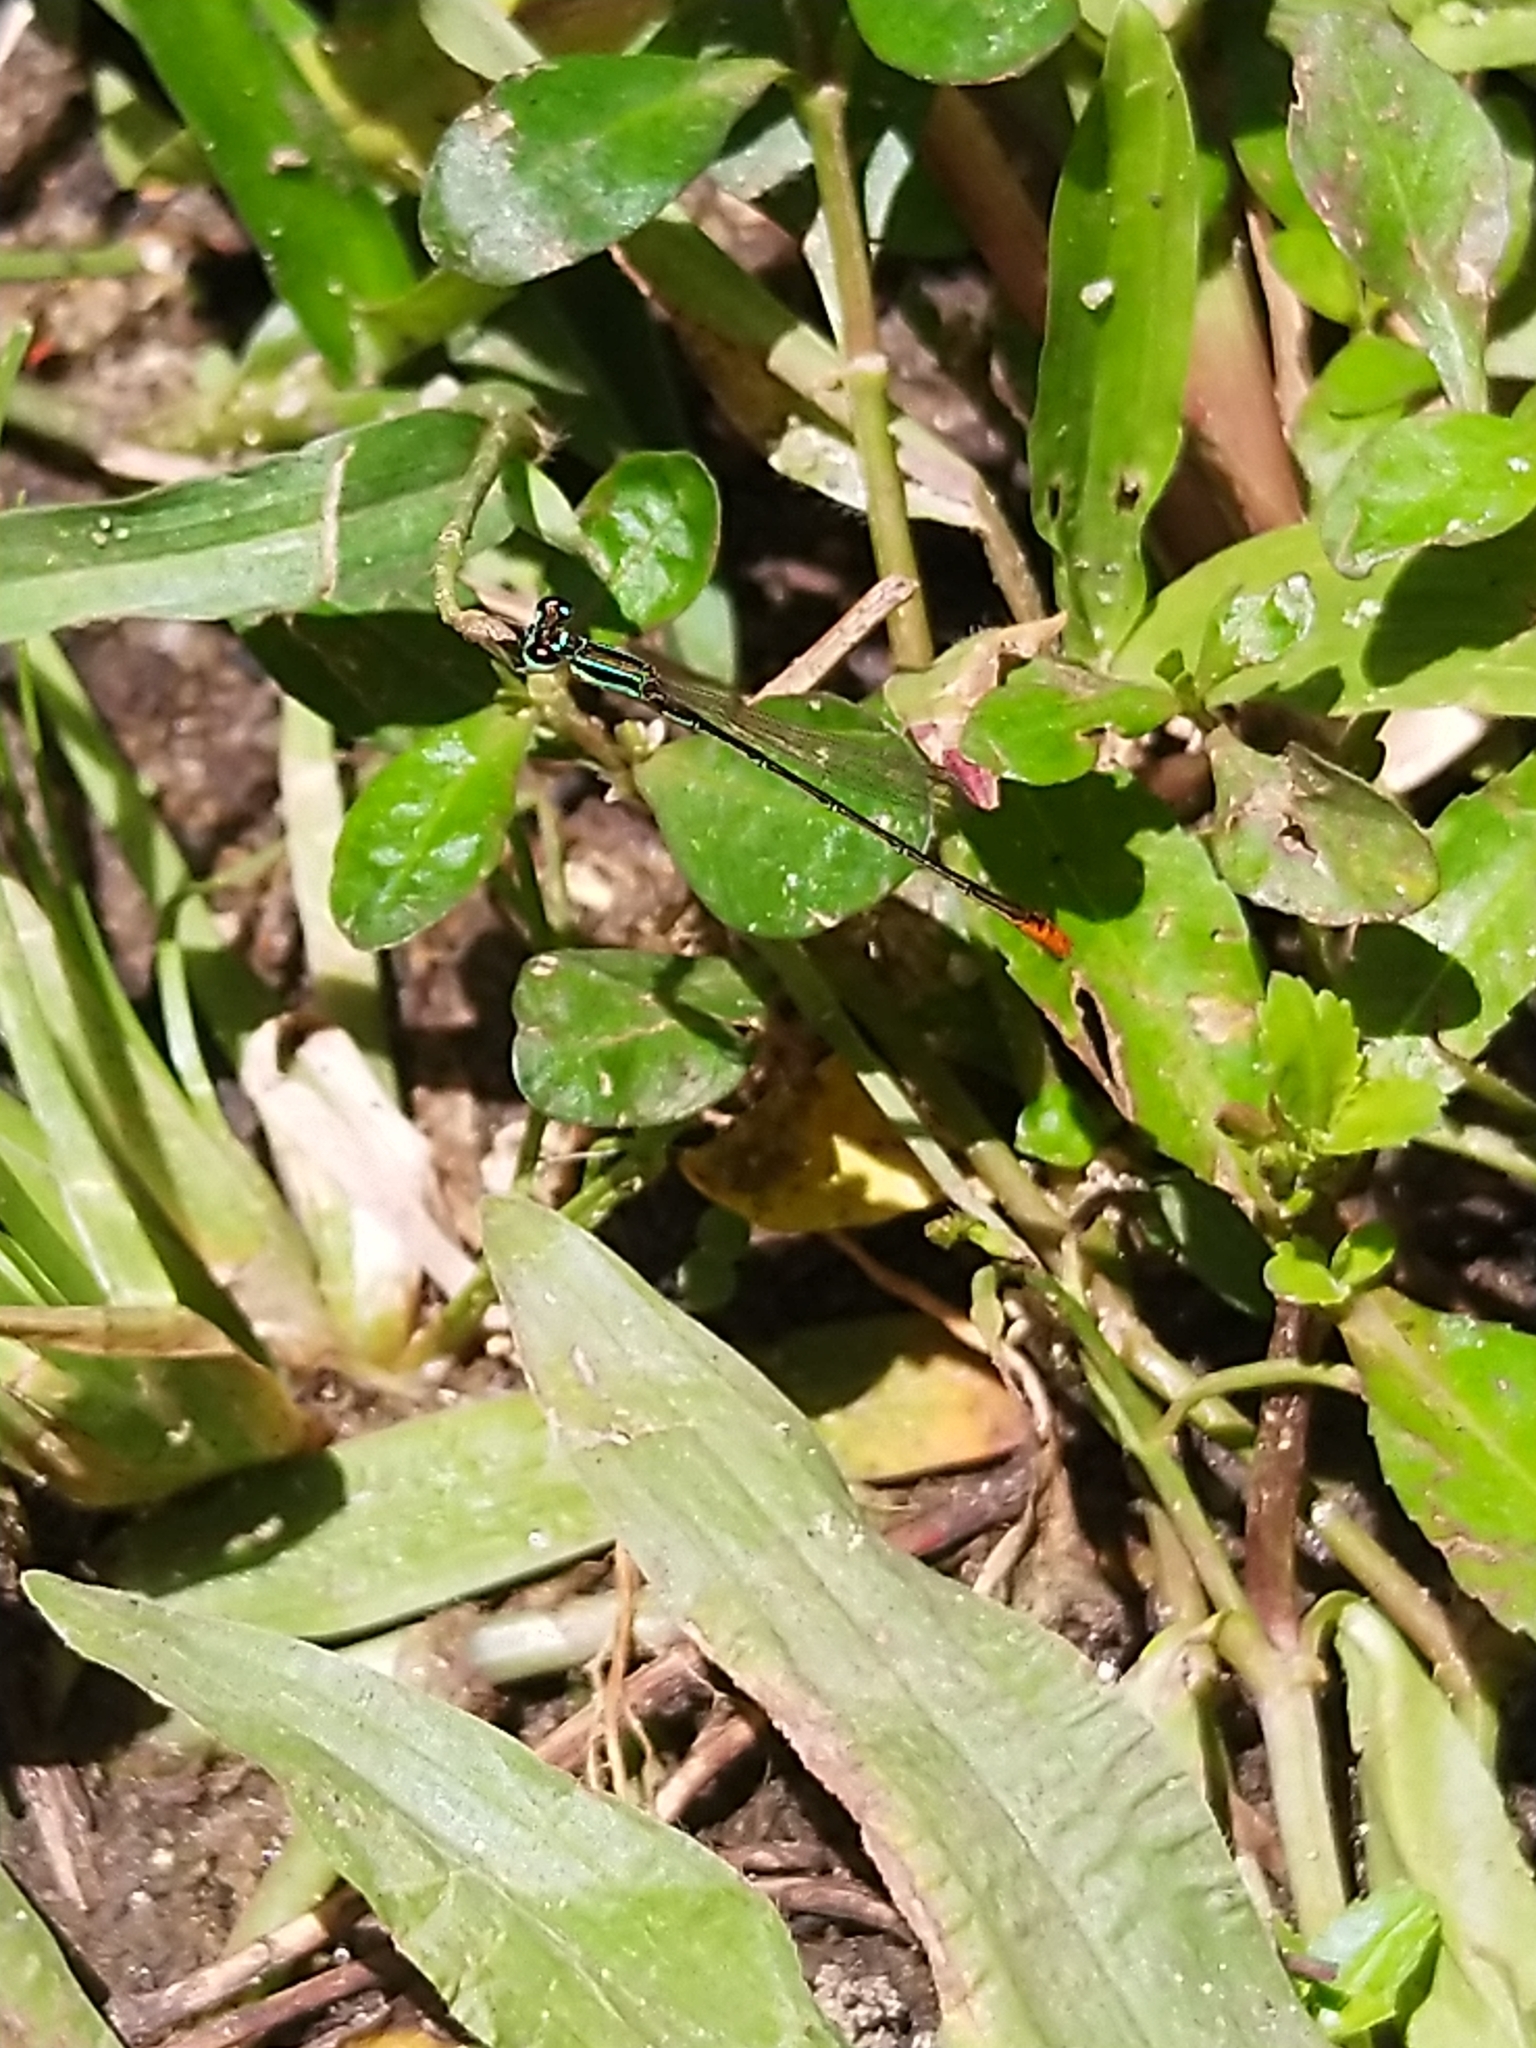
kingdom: Animalia
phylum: Arthropoda
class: Insecta
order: Odonata
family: Coenagrionidae
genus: Agriocnemis
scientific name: Agriocnemis pygmaea
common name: Pygmy wisp
